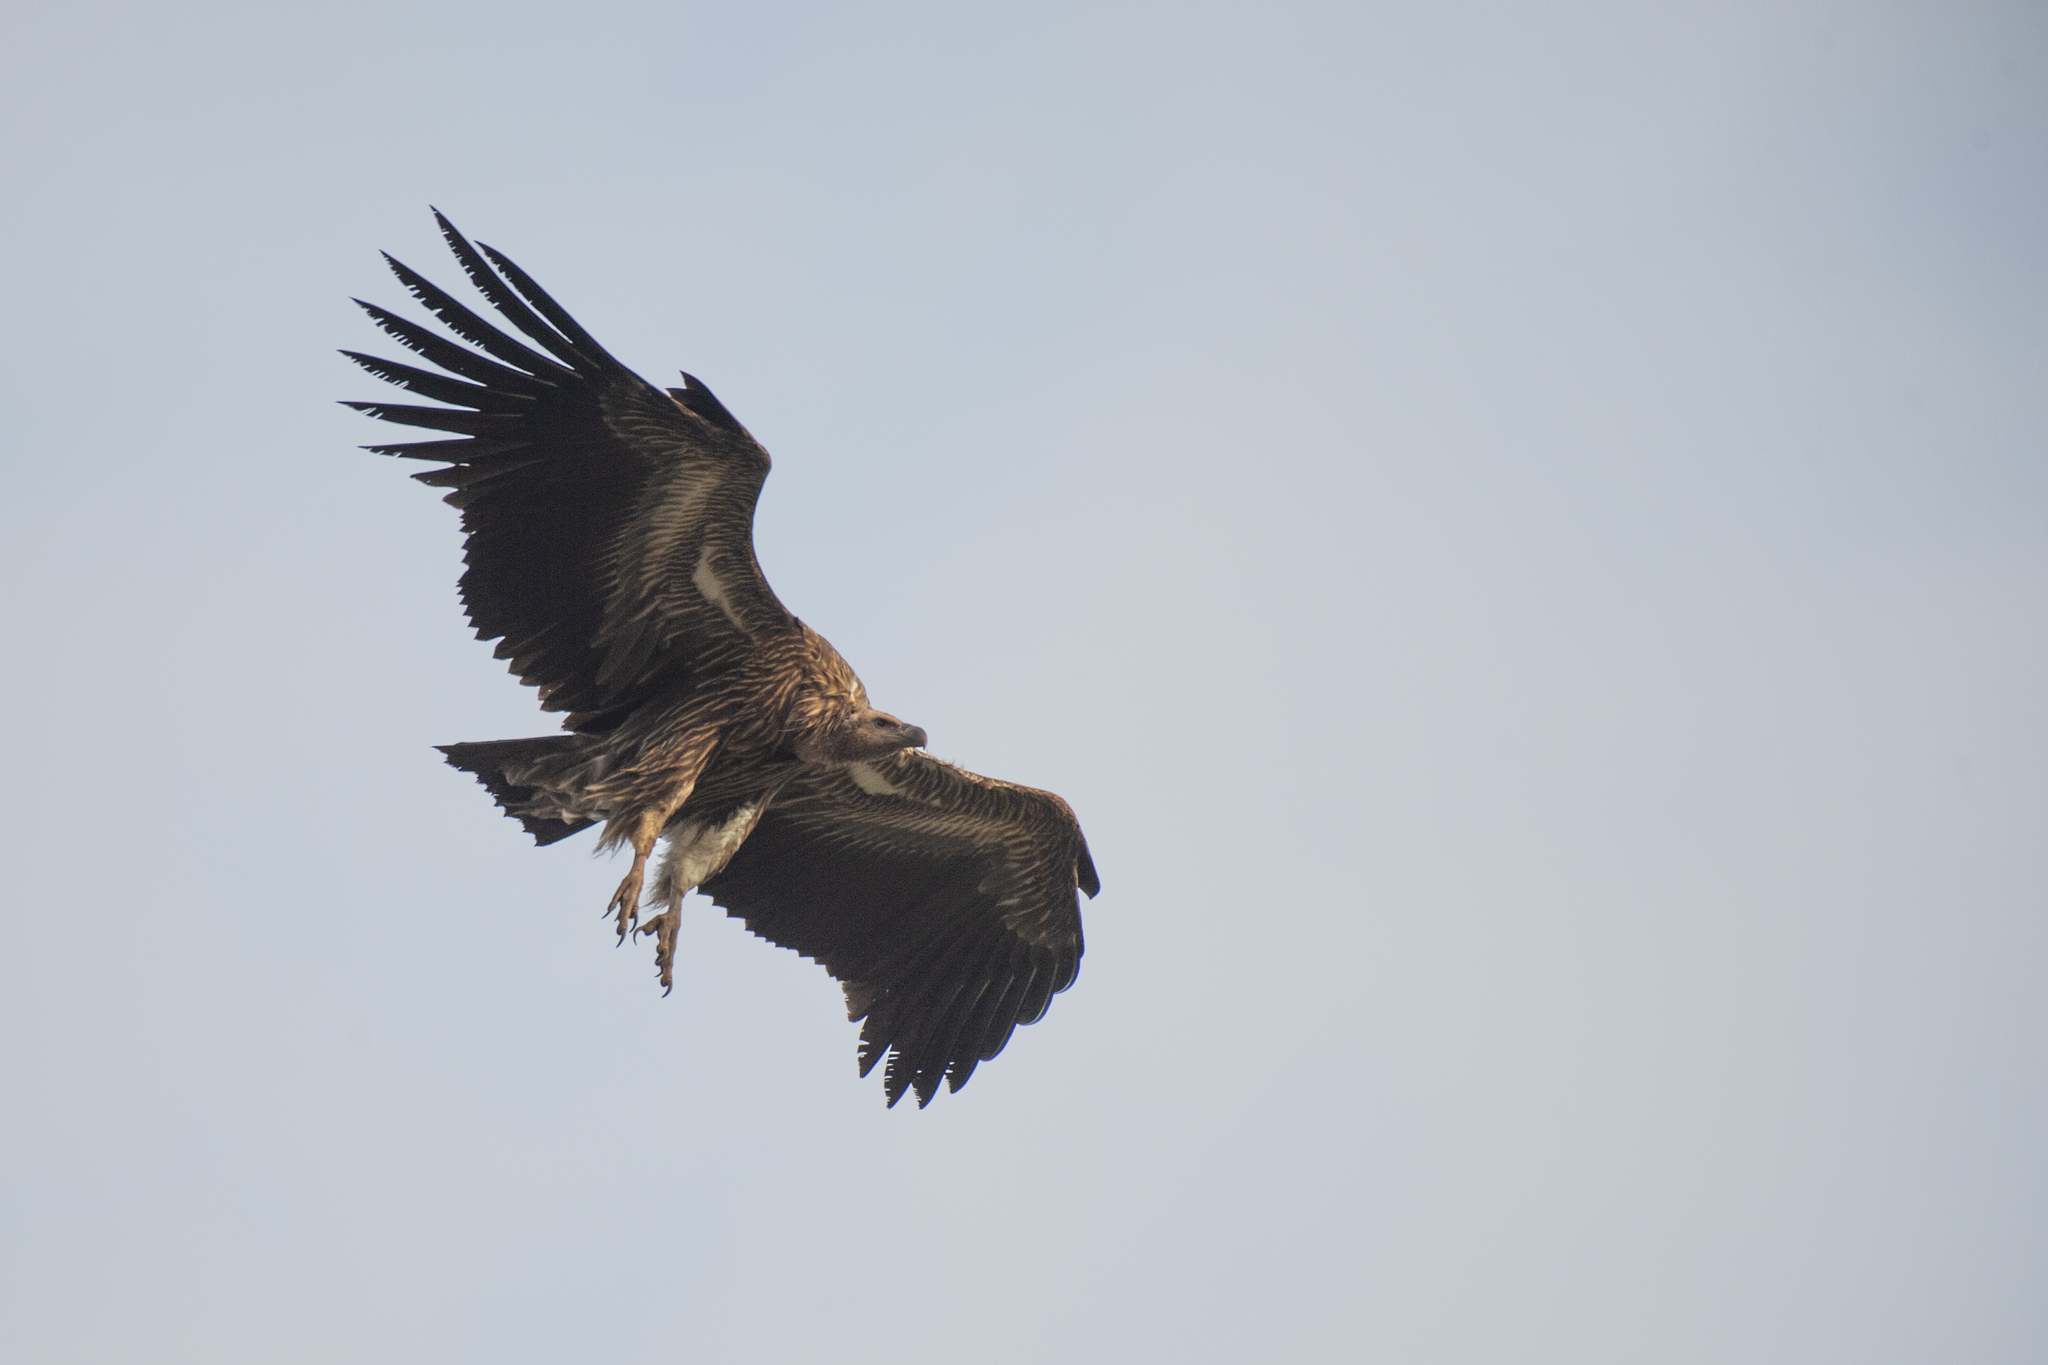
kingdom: Animalia
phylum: Chordata
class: Aves
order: Accipitriformes
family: Accipitridae
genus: Gyps
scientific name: Gyps himalayensis
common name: Himalayan griffon
